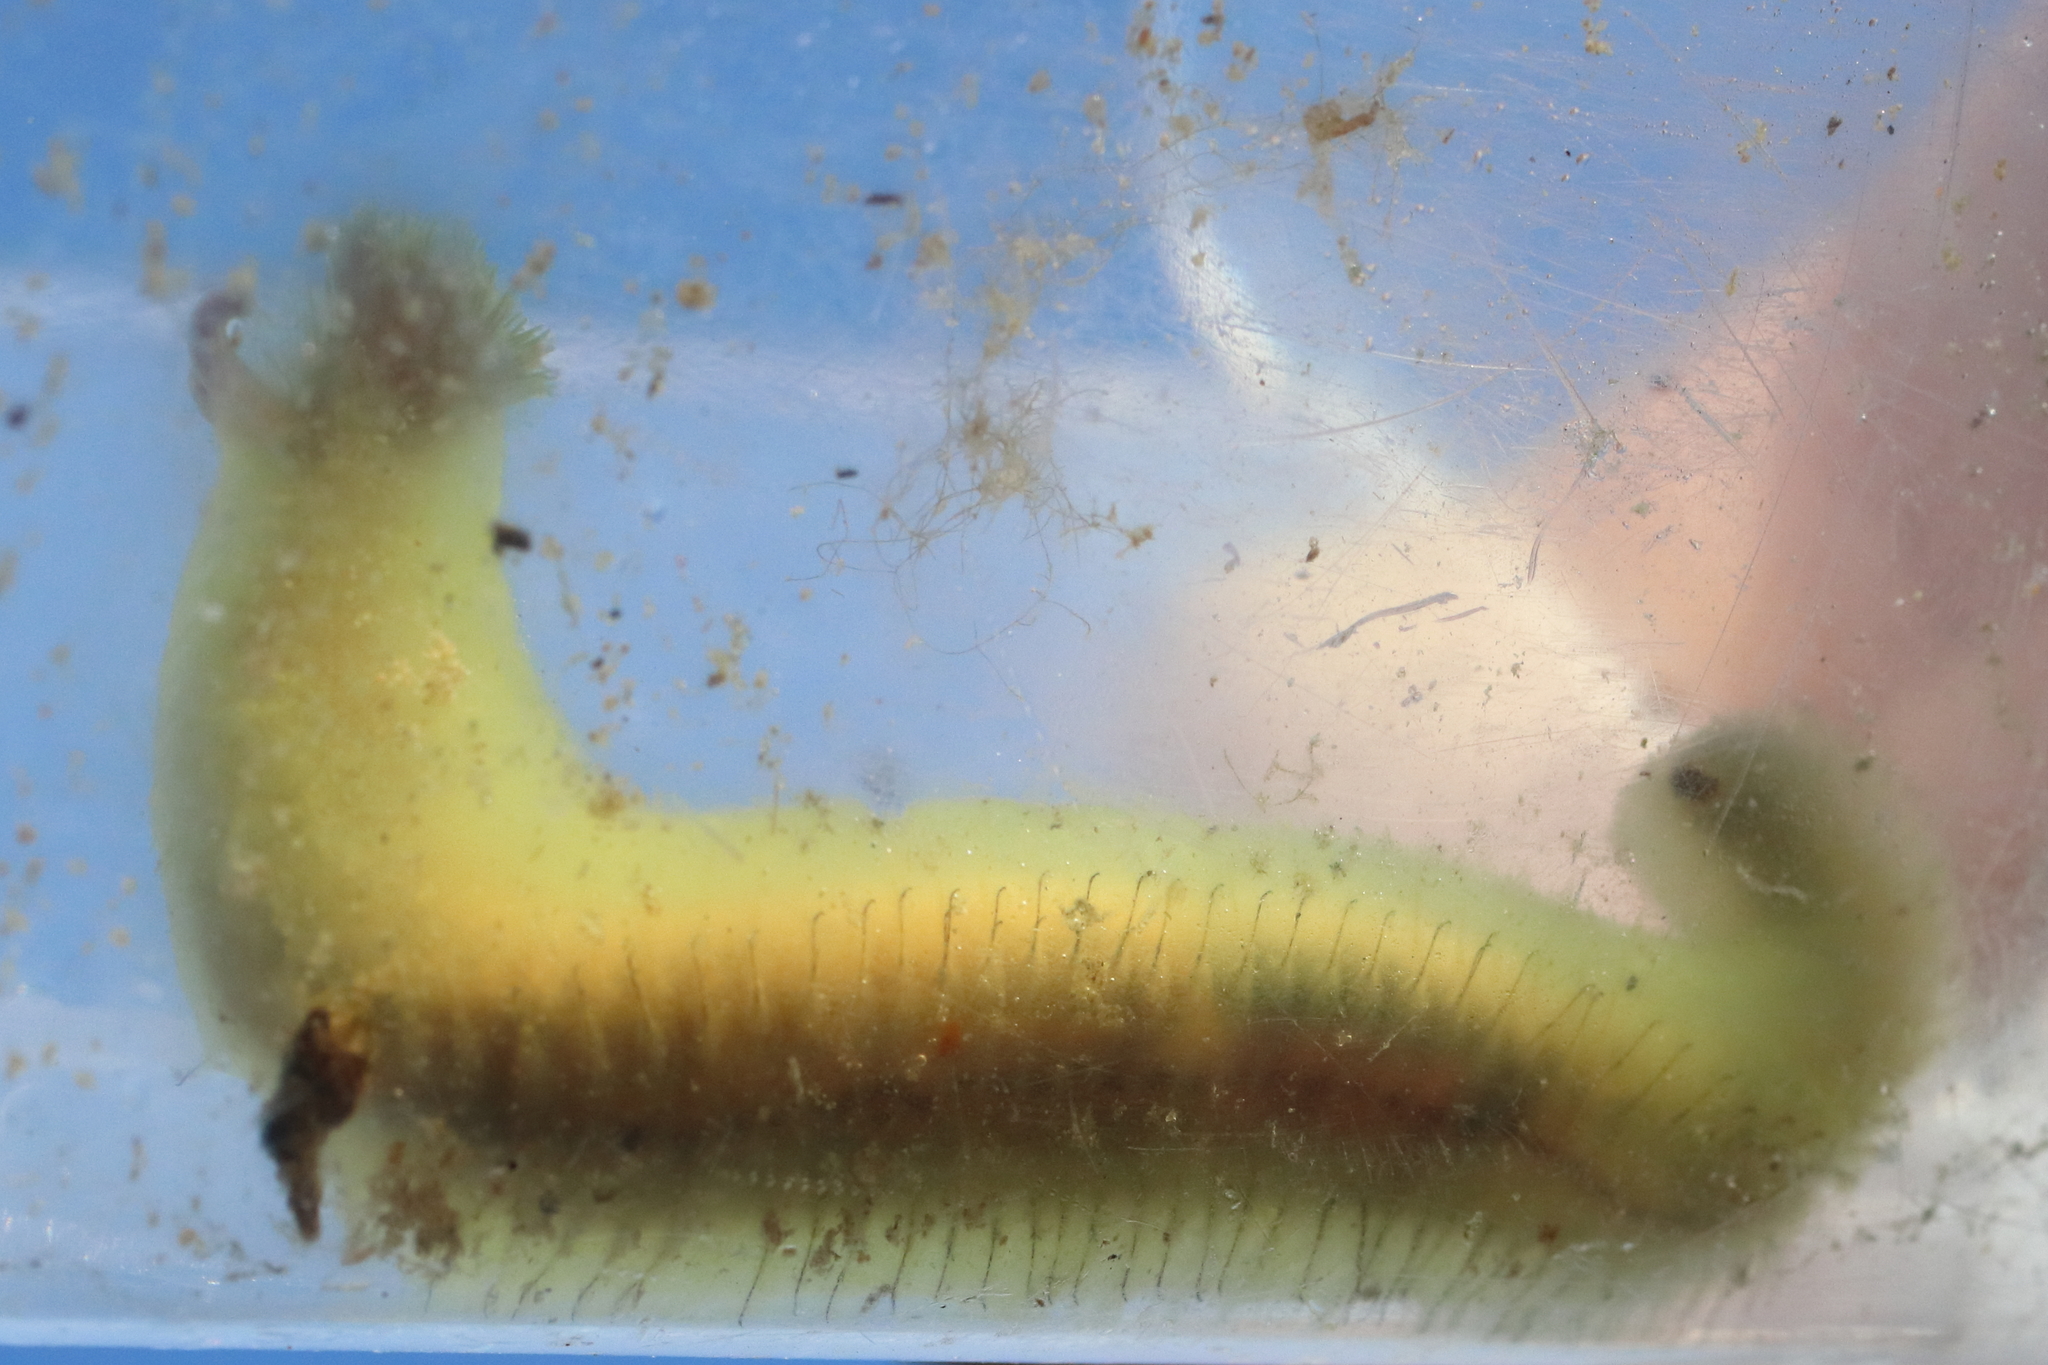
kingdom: Animalia
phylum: Annelida
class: Polychaeta
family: Flabelligeridae
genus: Flabelligera
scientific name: Flabelligera infundibularis
